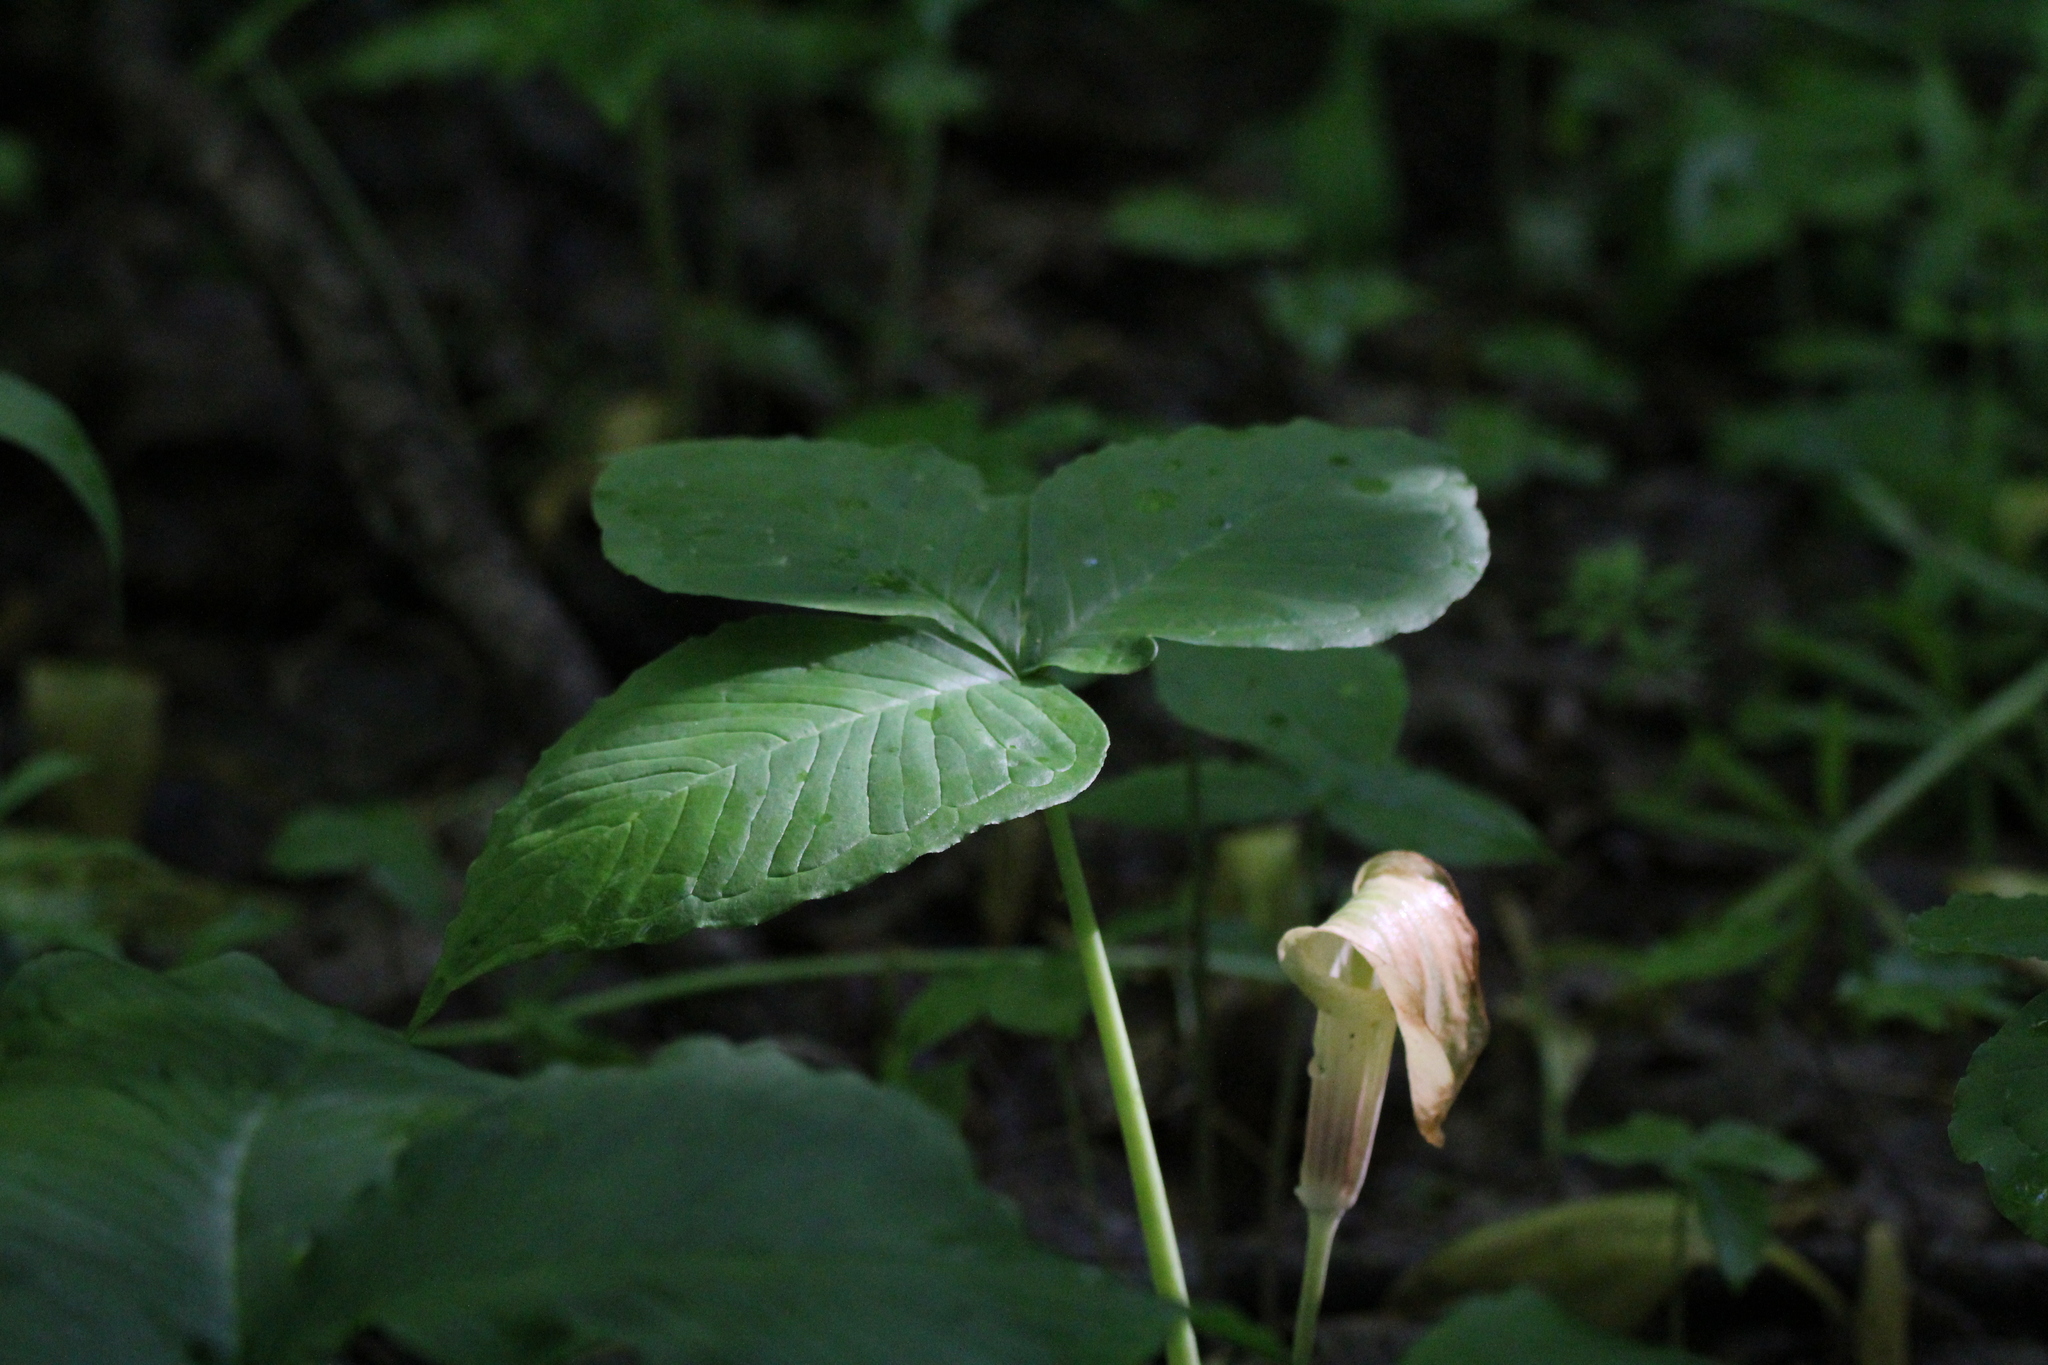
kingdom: Plantae
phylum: Tracheophyta
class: Liliopsida
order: Alismatales
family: Araceae
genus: Arisaema
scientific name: Arisaema triphyllum
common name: Jack-in-the-pulpit
